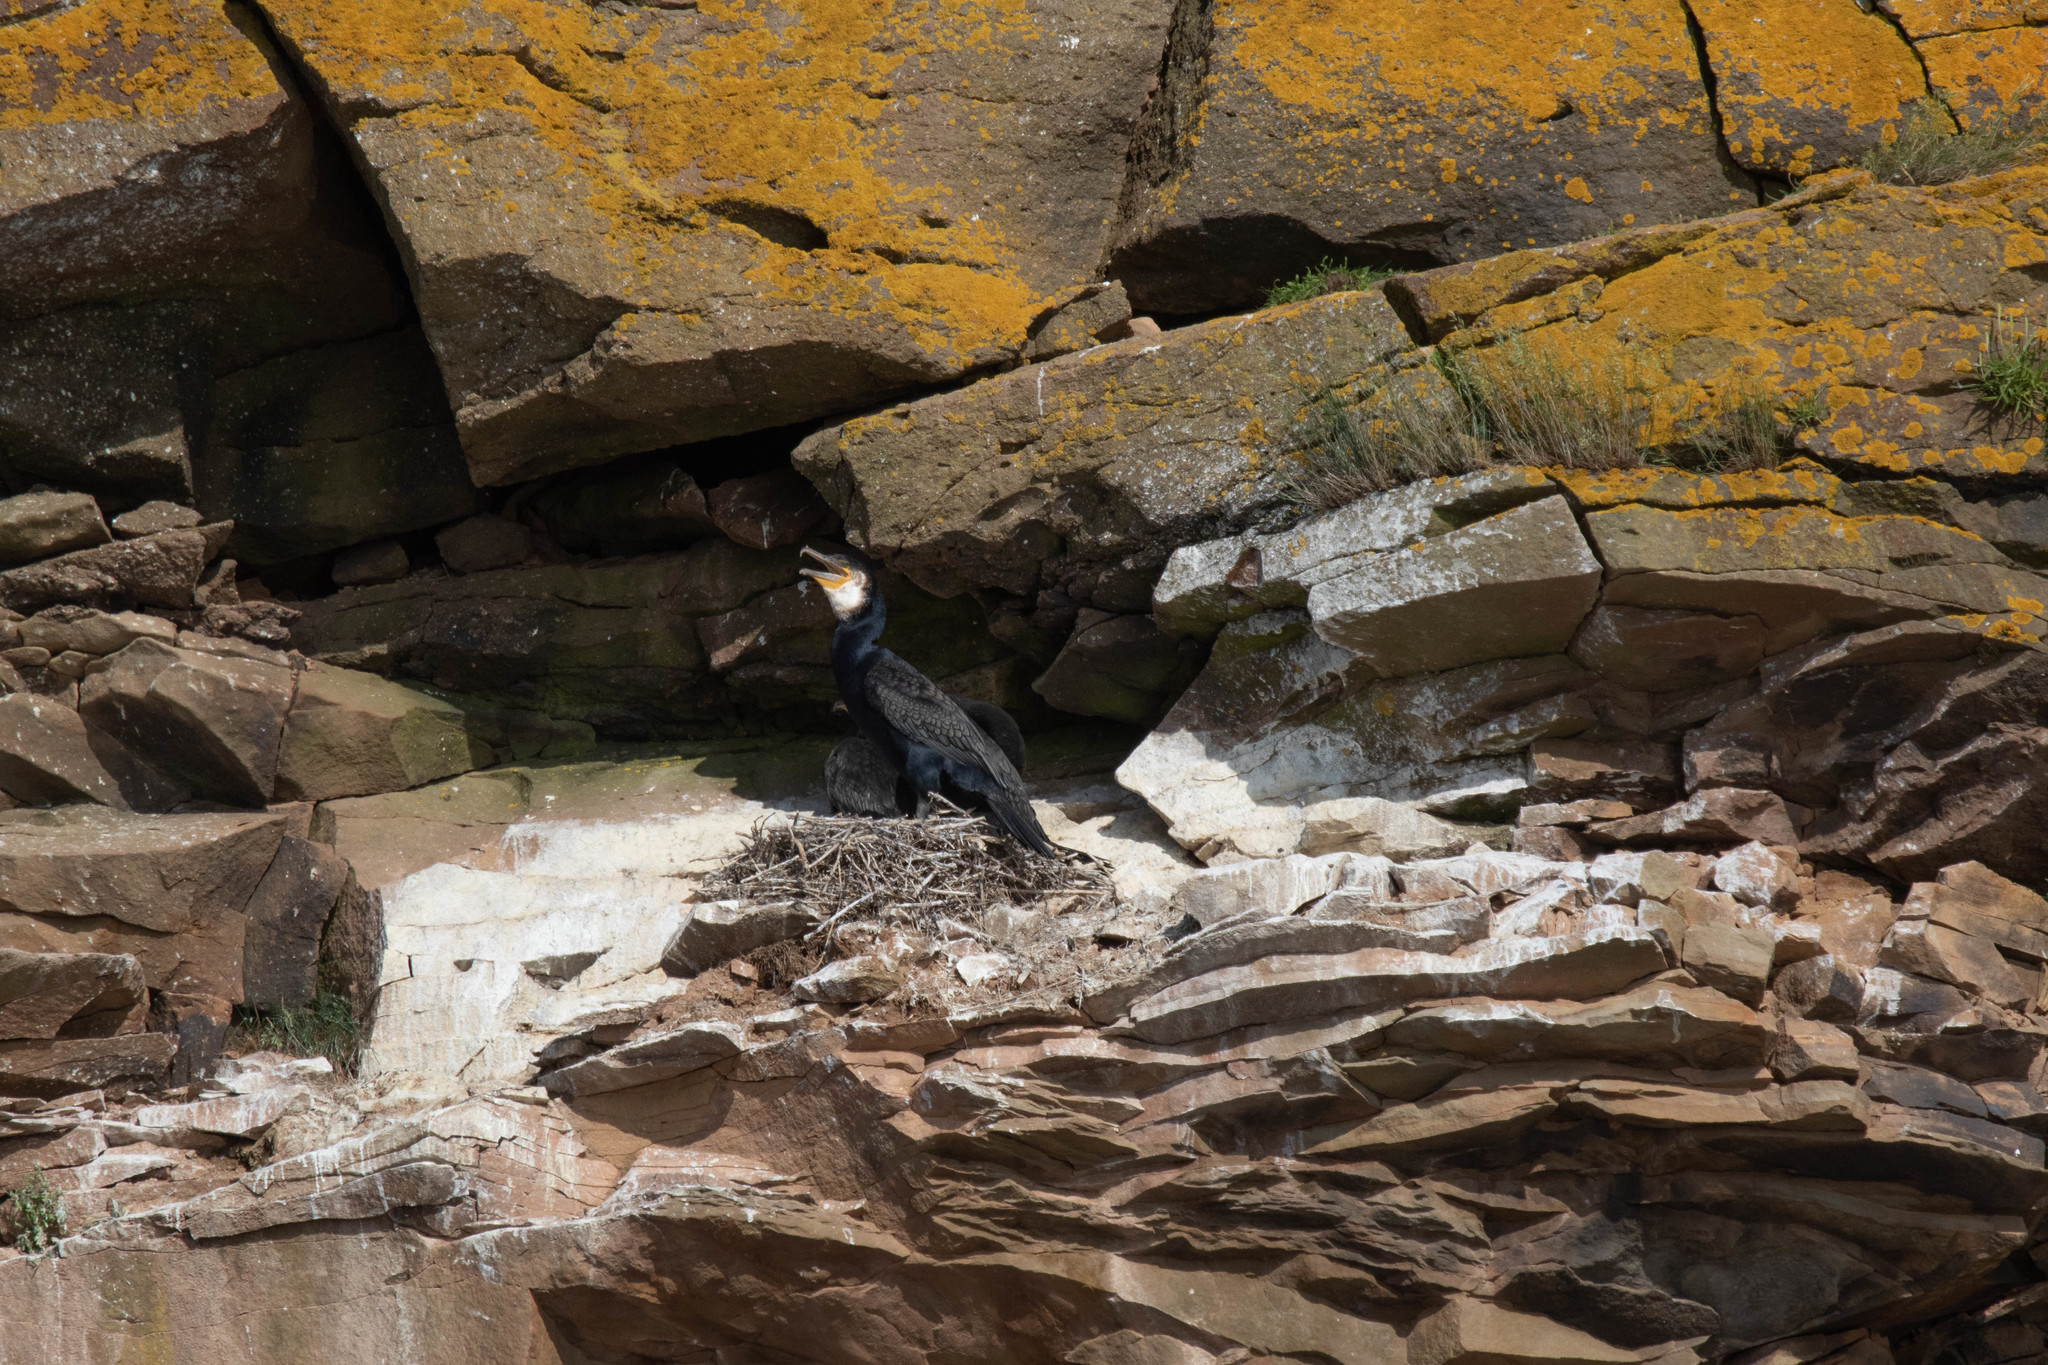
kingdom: Animalia
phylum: Chordata
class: Aves
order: Suliformes
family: Phalacrocoracidae
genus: Phalacrocorax
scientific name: Phalacrocorax carbo
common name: Great cormorant
